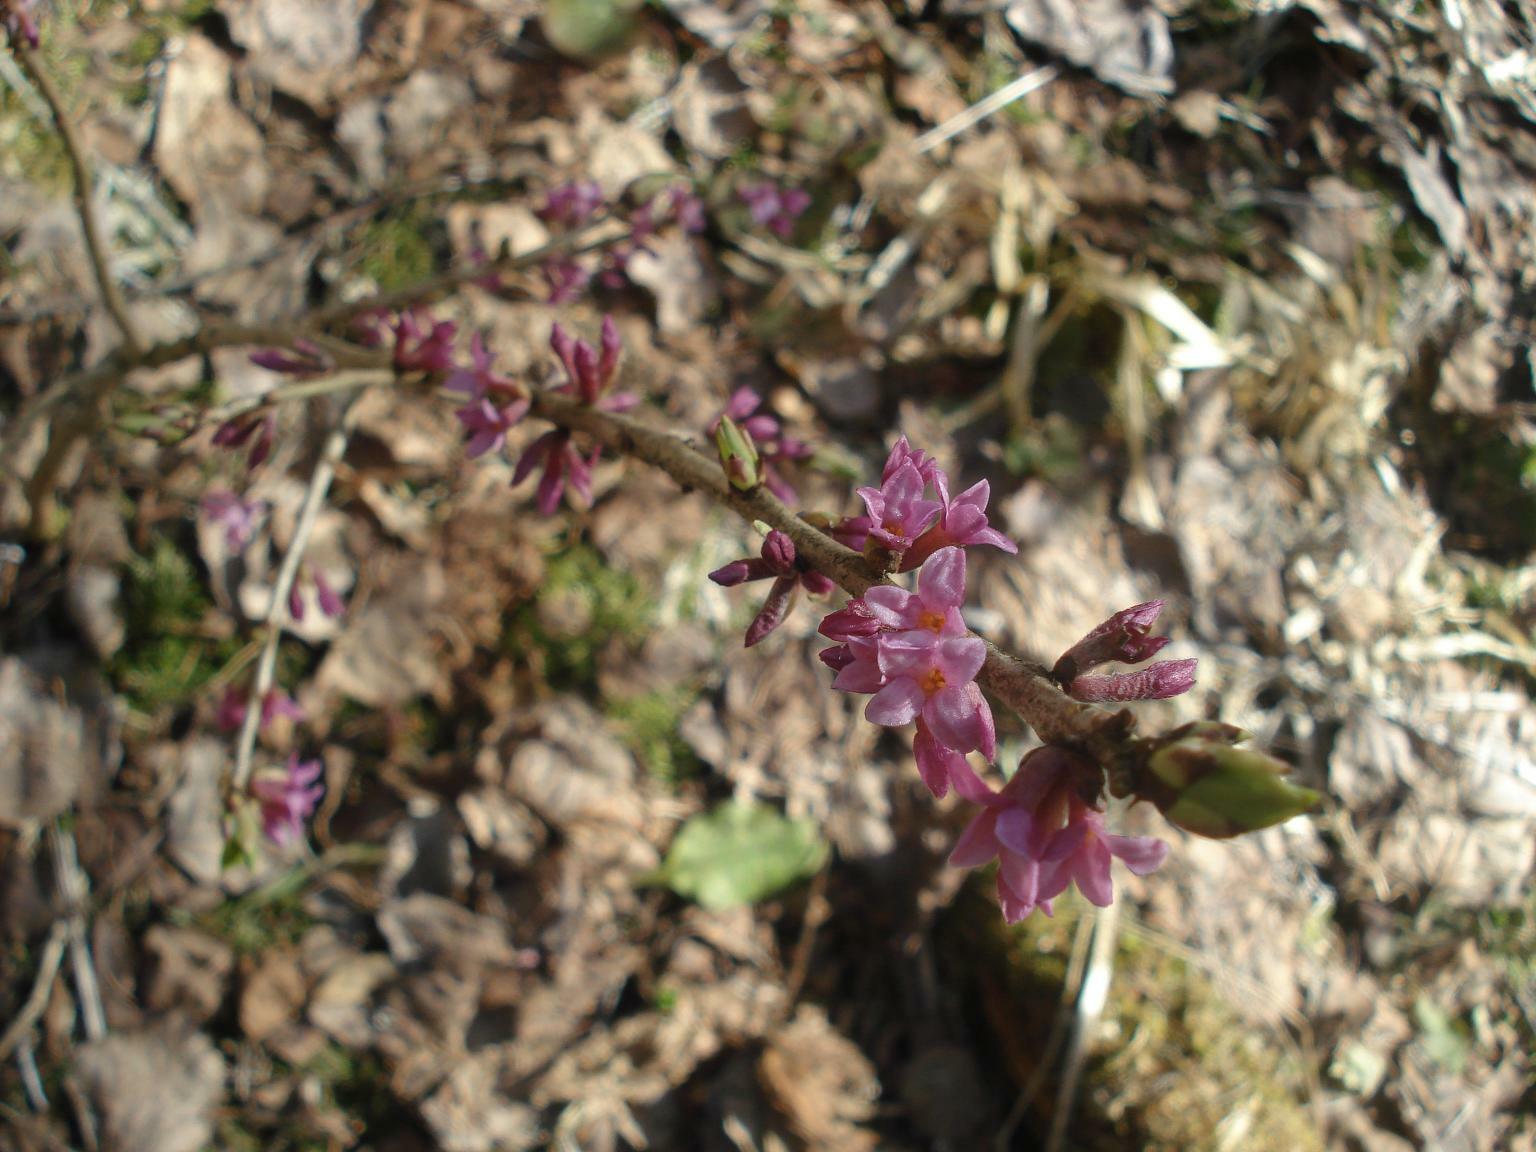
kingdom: Plantae
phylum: Tracheophyta
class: Magnoliopsida
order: Malvales
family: Thymelaeaceae
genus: Daphne
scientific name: Daphne mezereum
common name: Mezereon
